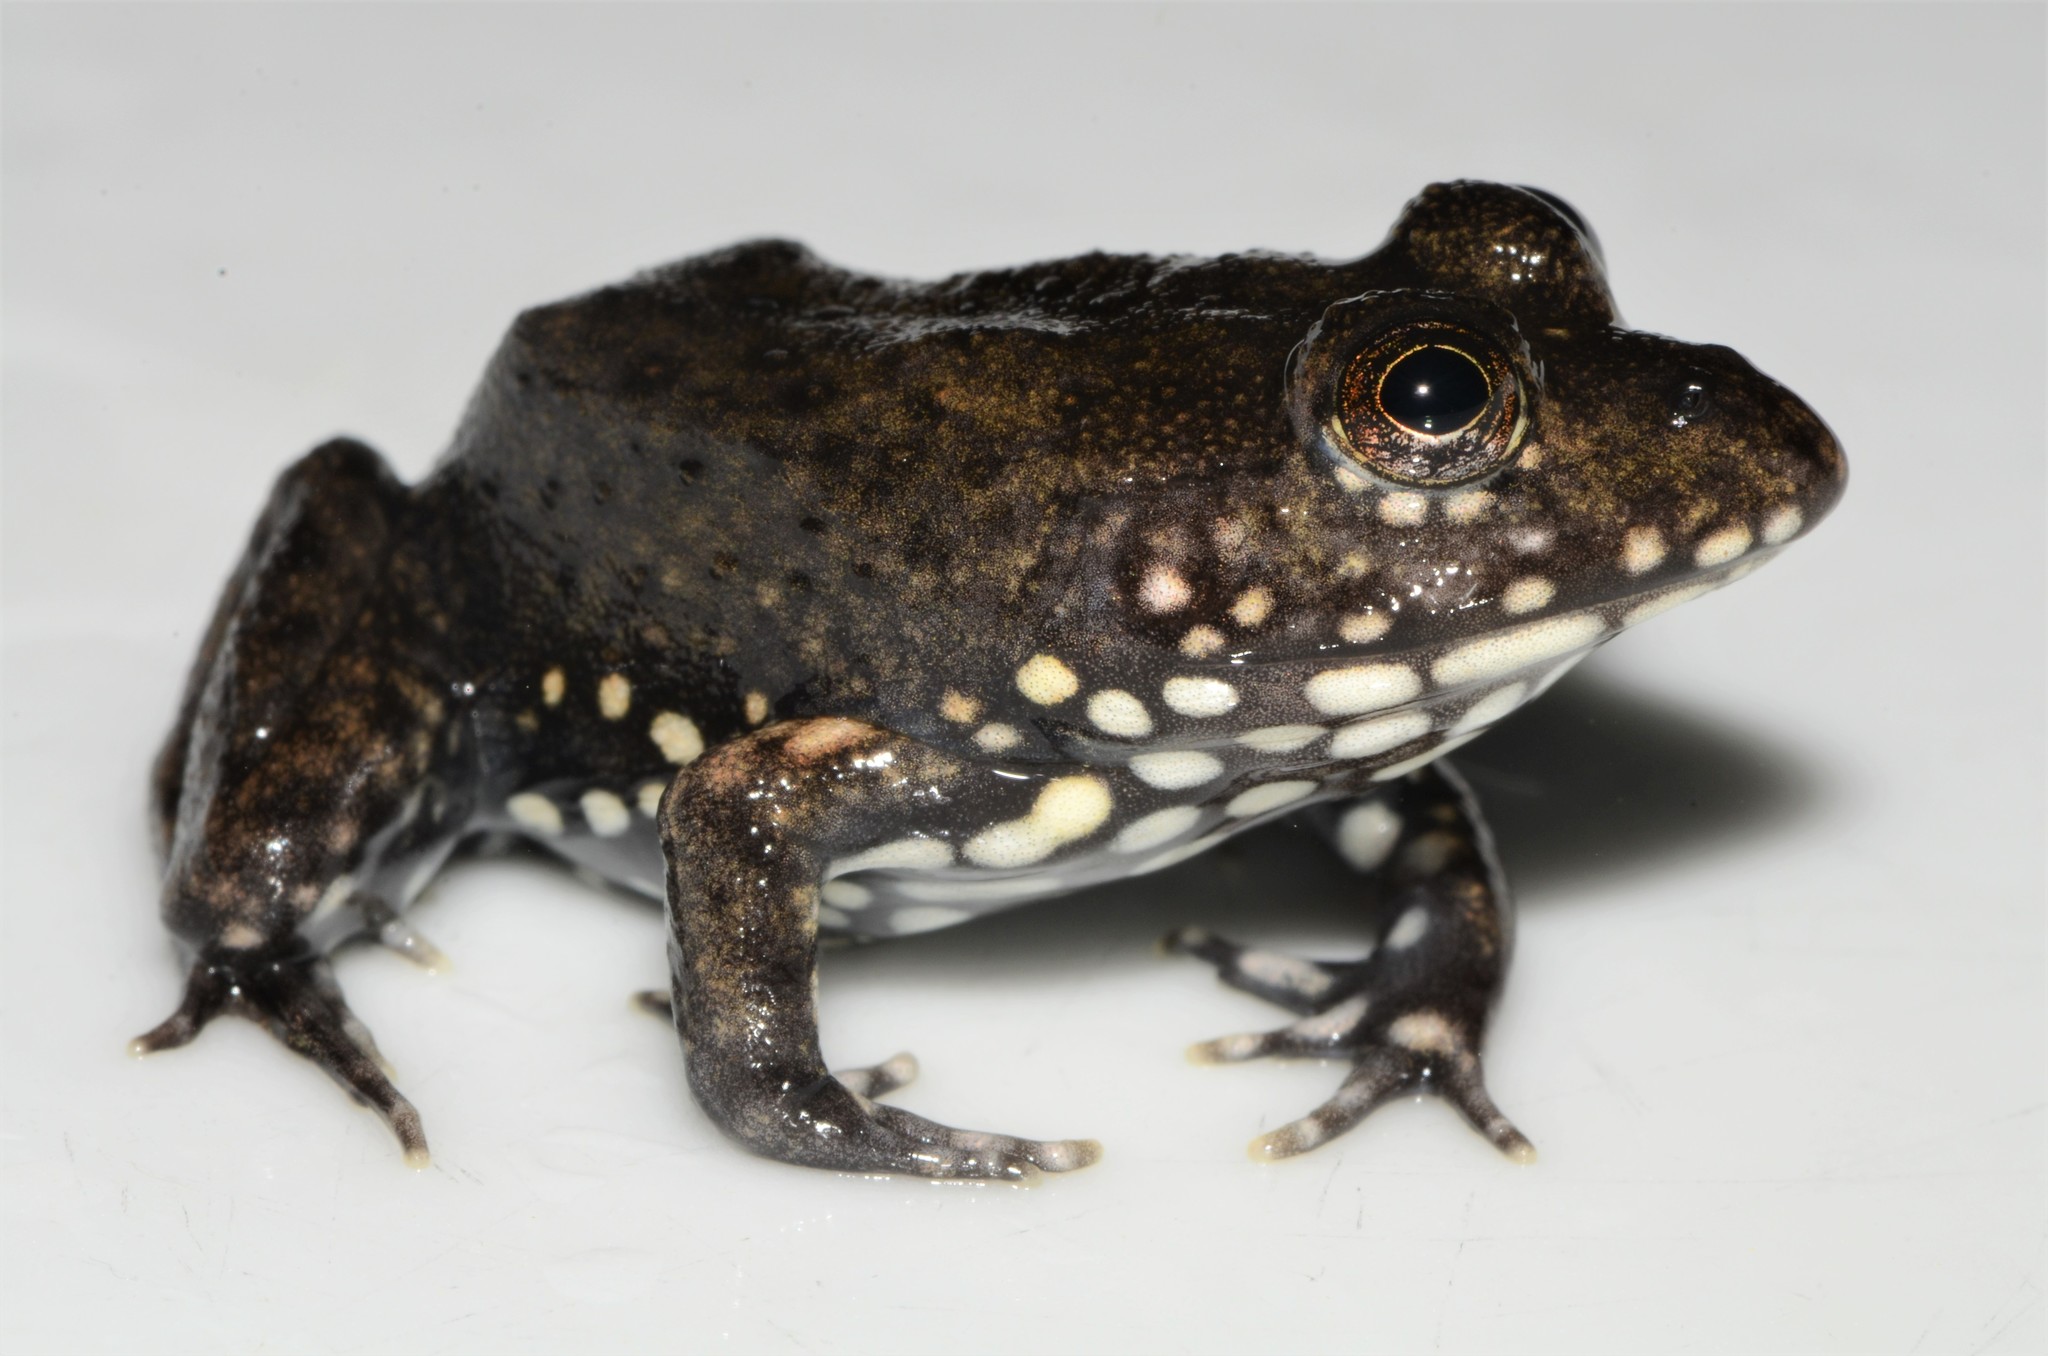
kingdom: Animalia
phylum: Chordata
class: Amphibia
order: Anura
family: Pyxicephalidae
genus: Aubria
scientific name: Aubria masako
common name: Masako ball frog
